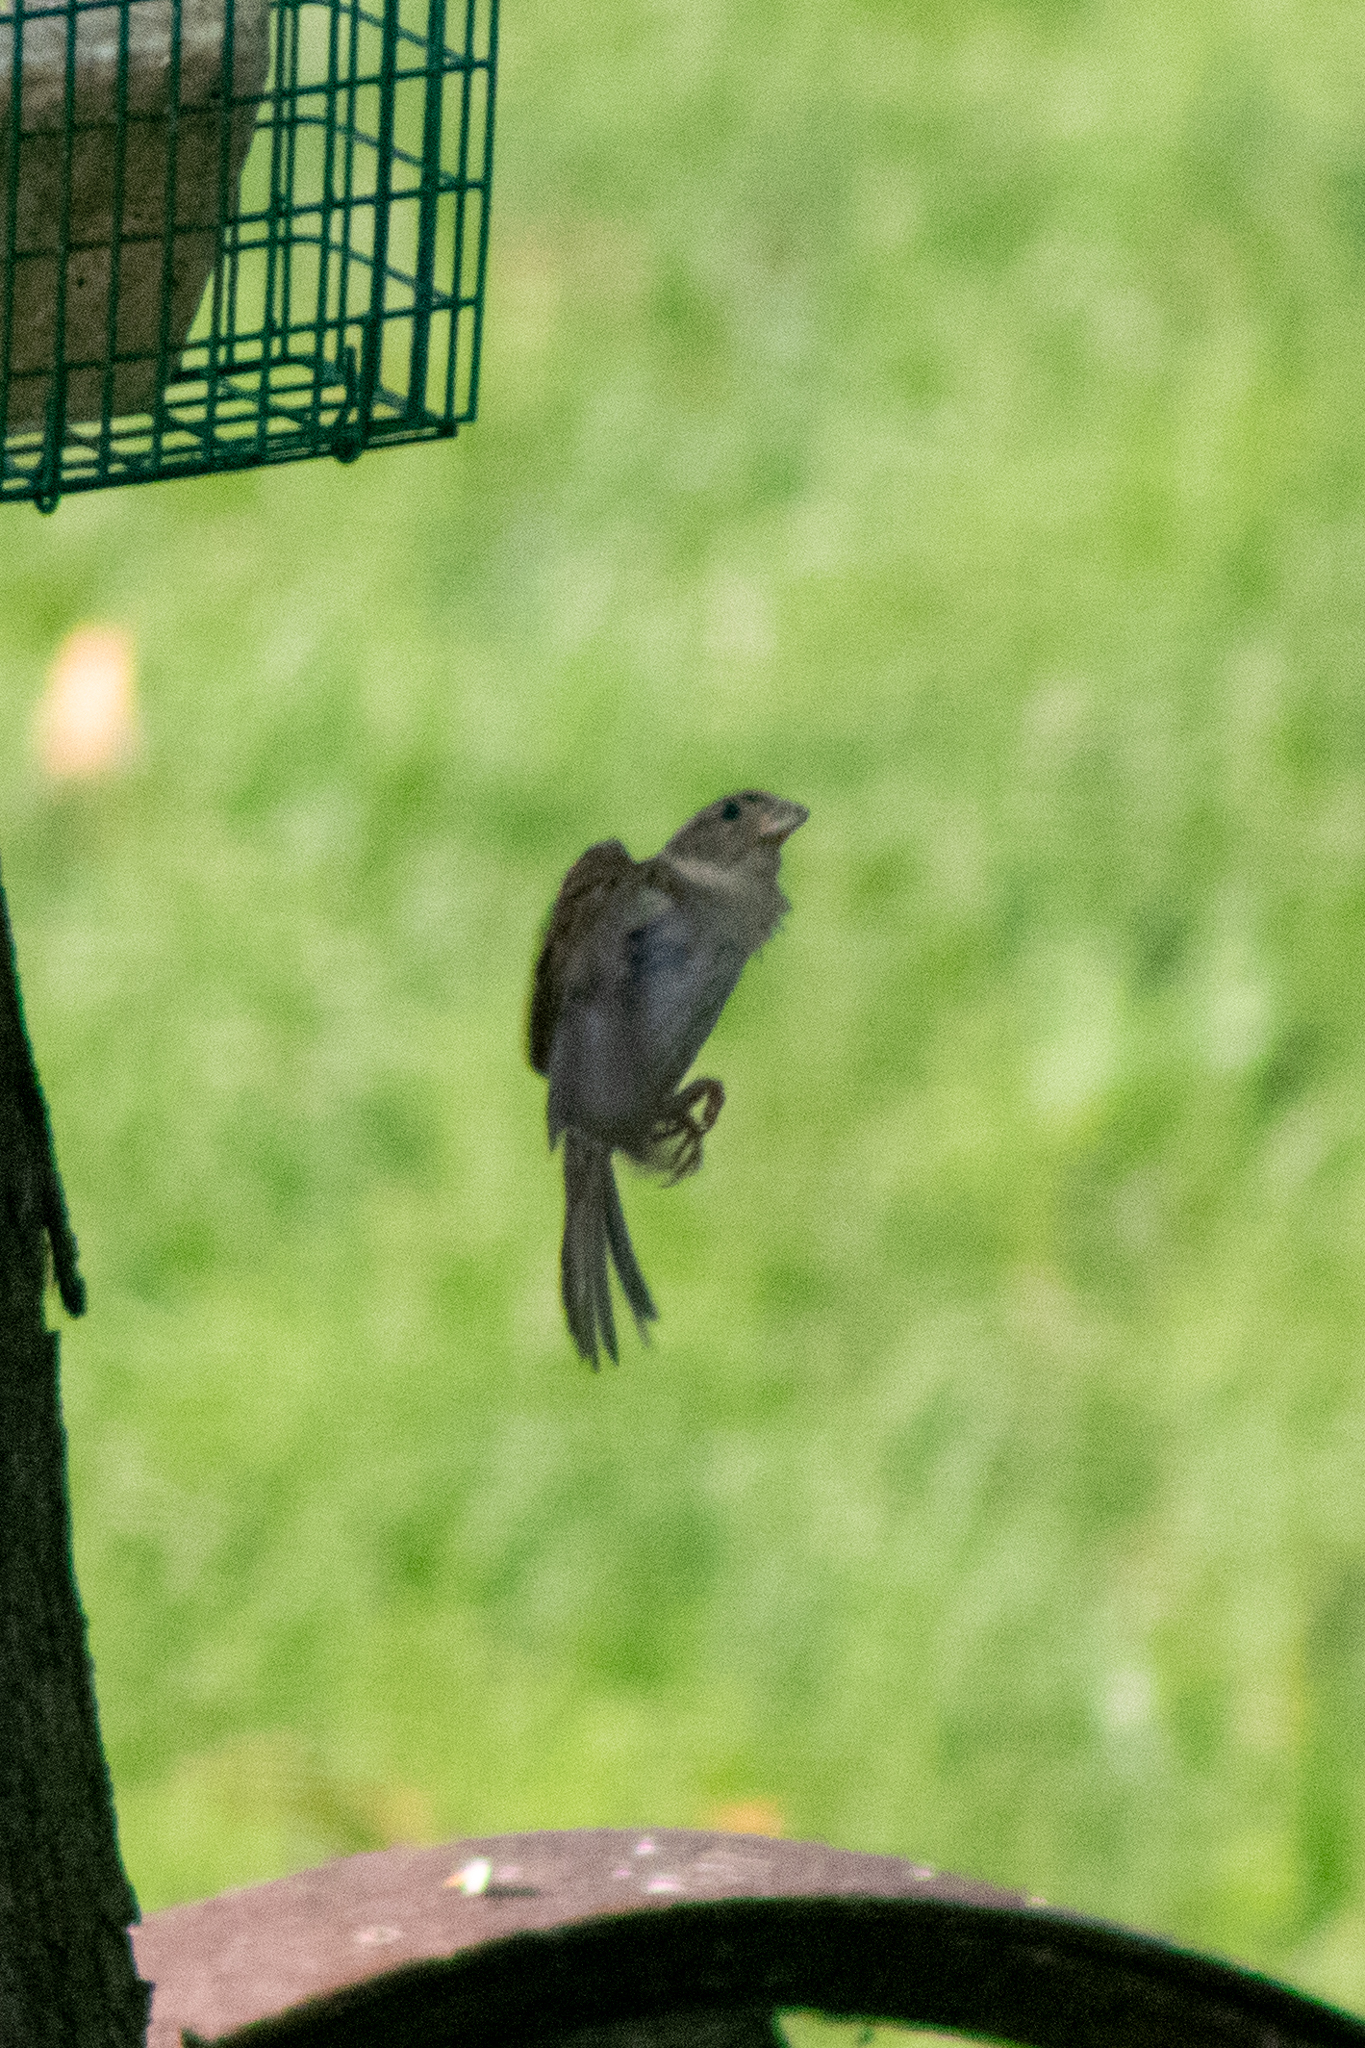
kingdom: Animalia
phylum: Chordata
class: Aves
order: Passeriformes
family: Passeridae
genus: Passer
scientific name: Passer domesticus
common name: House sparrow
